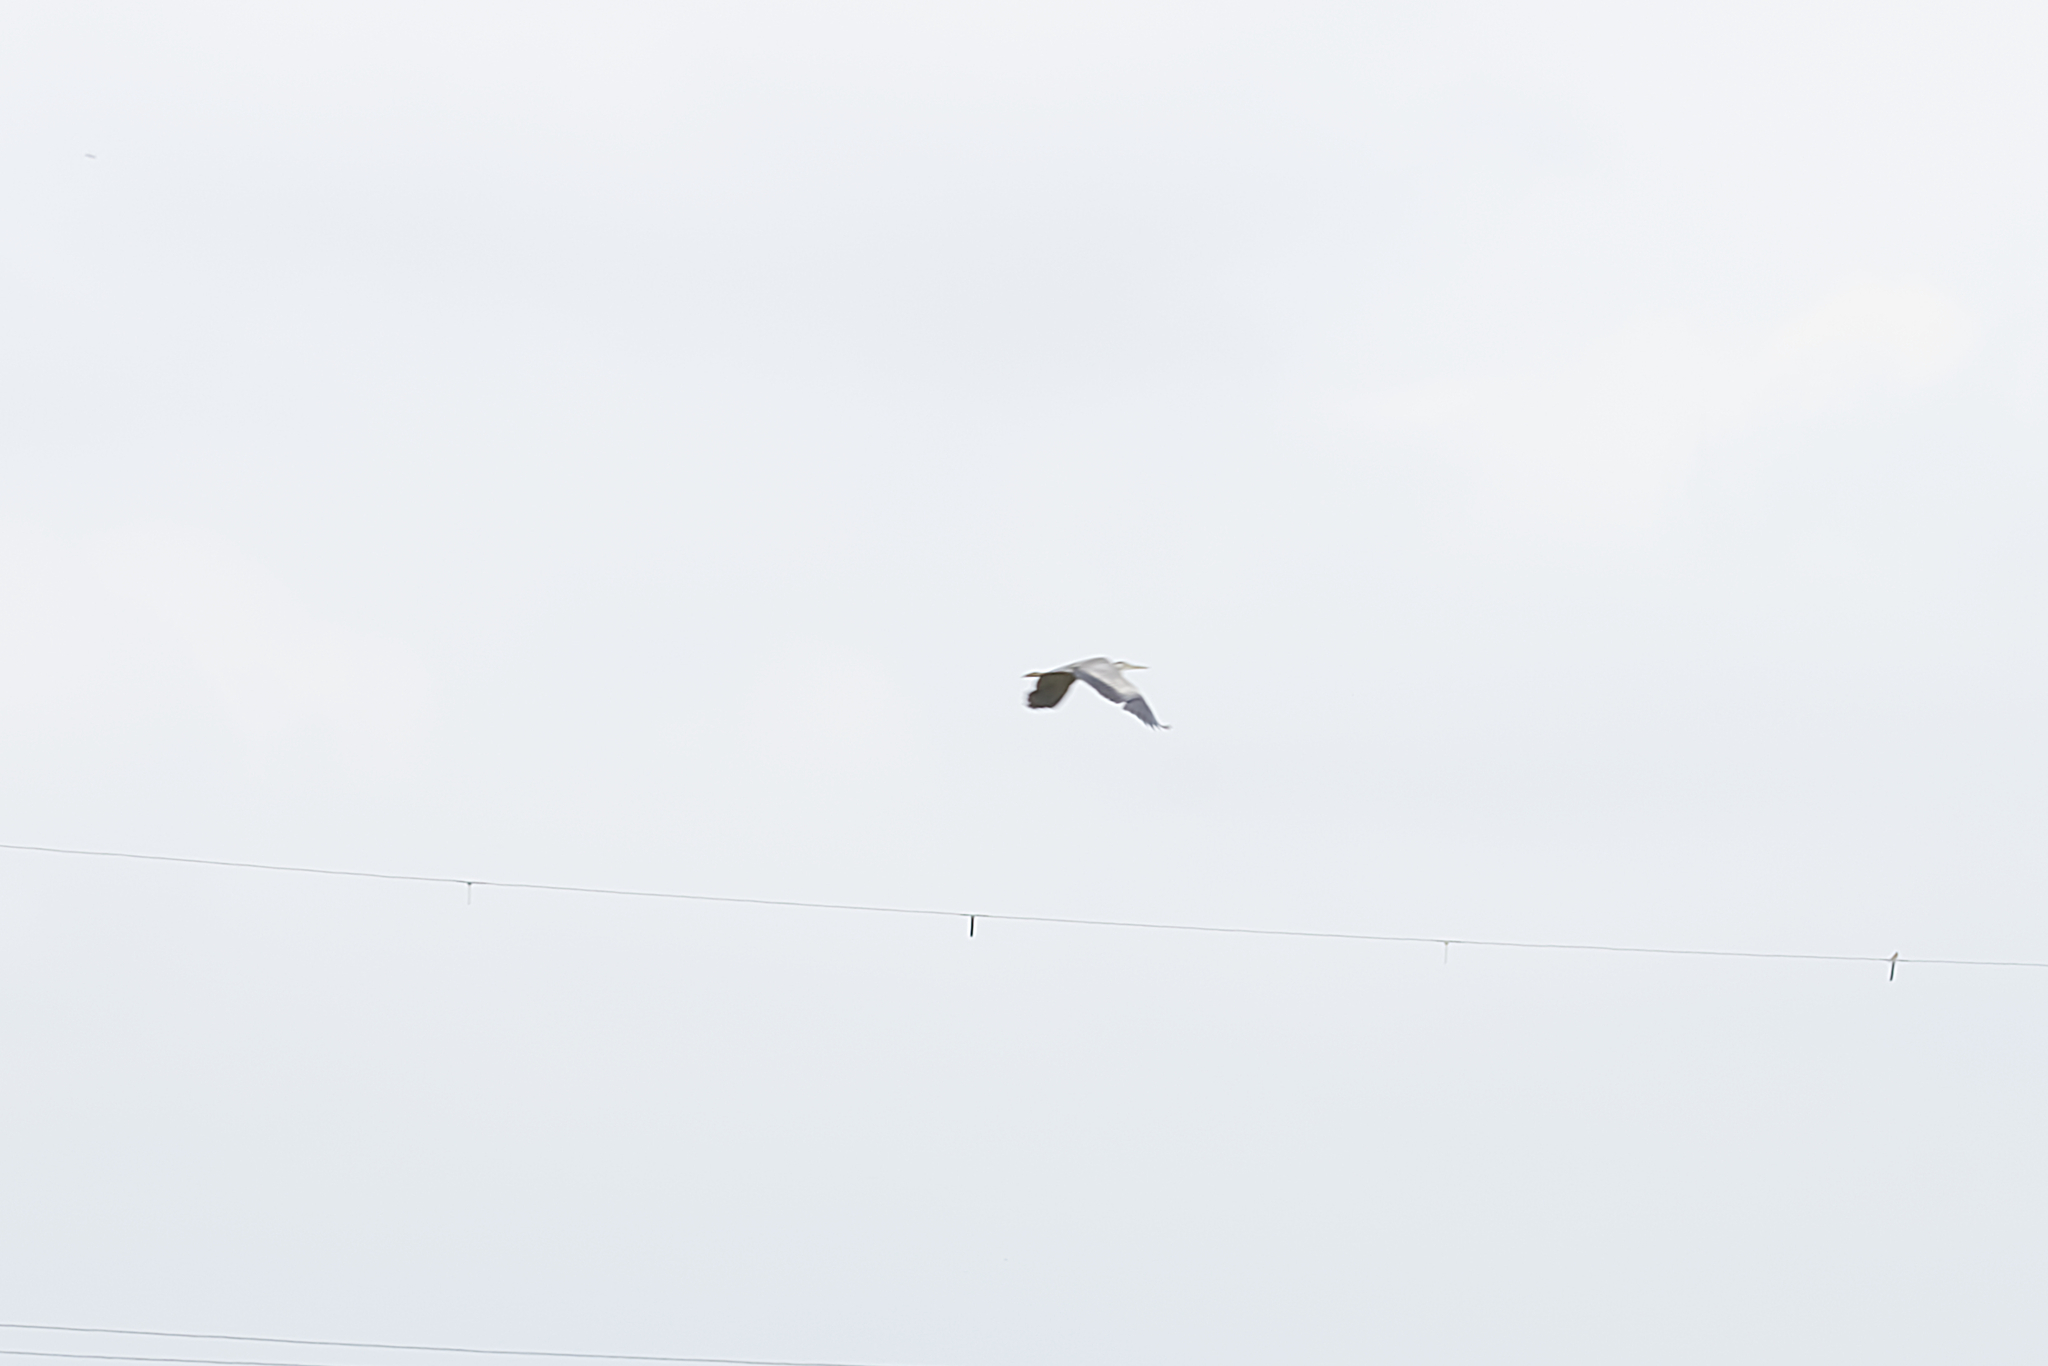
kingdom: Animalia
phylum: Chordata
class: Aves
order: Pelecaniformes
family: Ardeidae
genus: Ardea
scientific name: Ardea cinerea
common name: Grey heron
